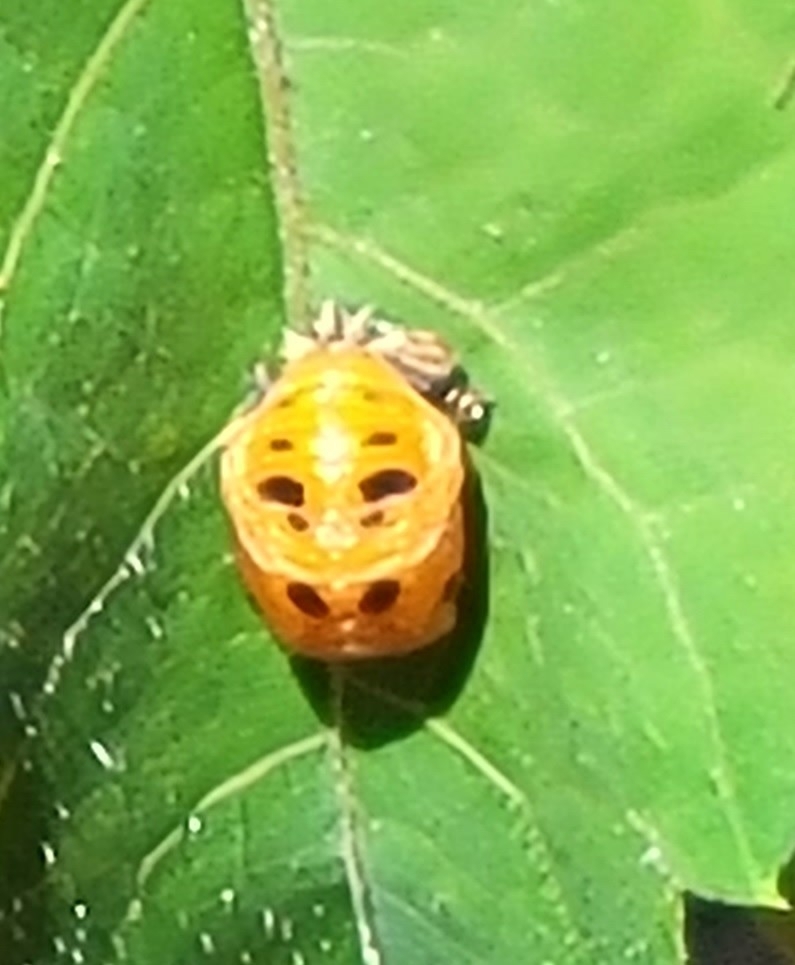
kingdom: Animalia
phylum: Arthropoda
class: Insecta
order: Coleoptera
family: Coccinellidae
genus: Harmonia
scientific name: Harmonia axyridis
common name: Harlequin ladybird
